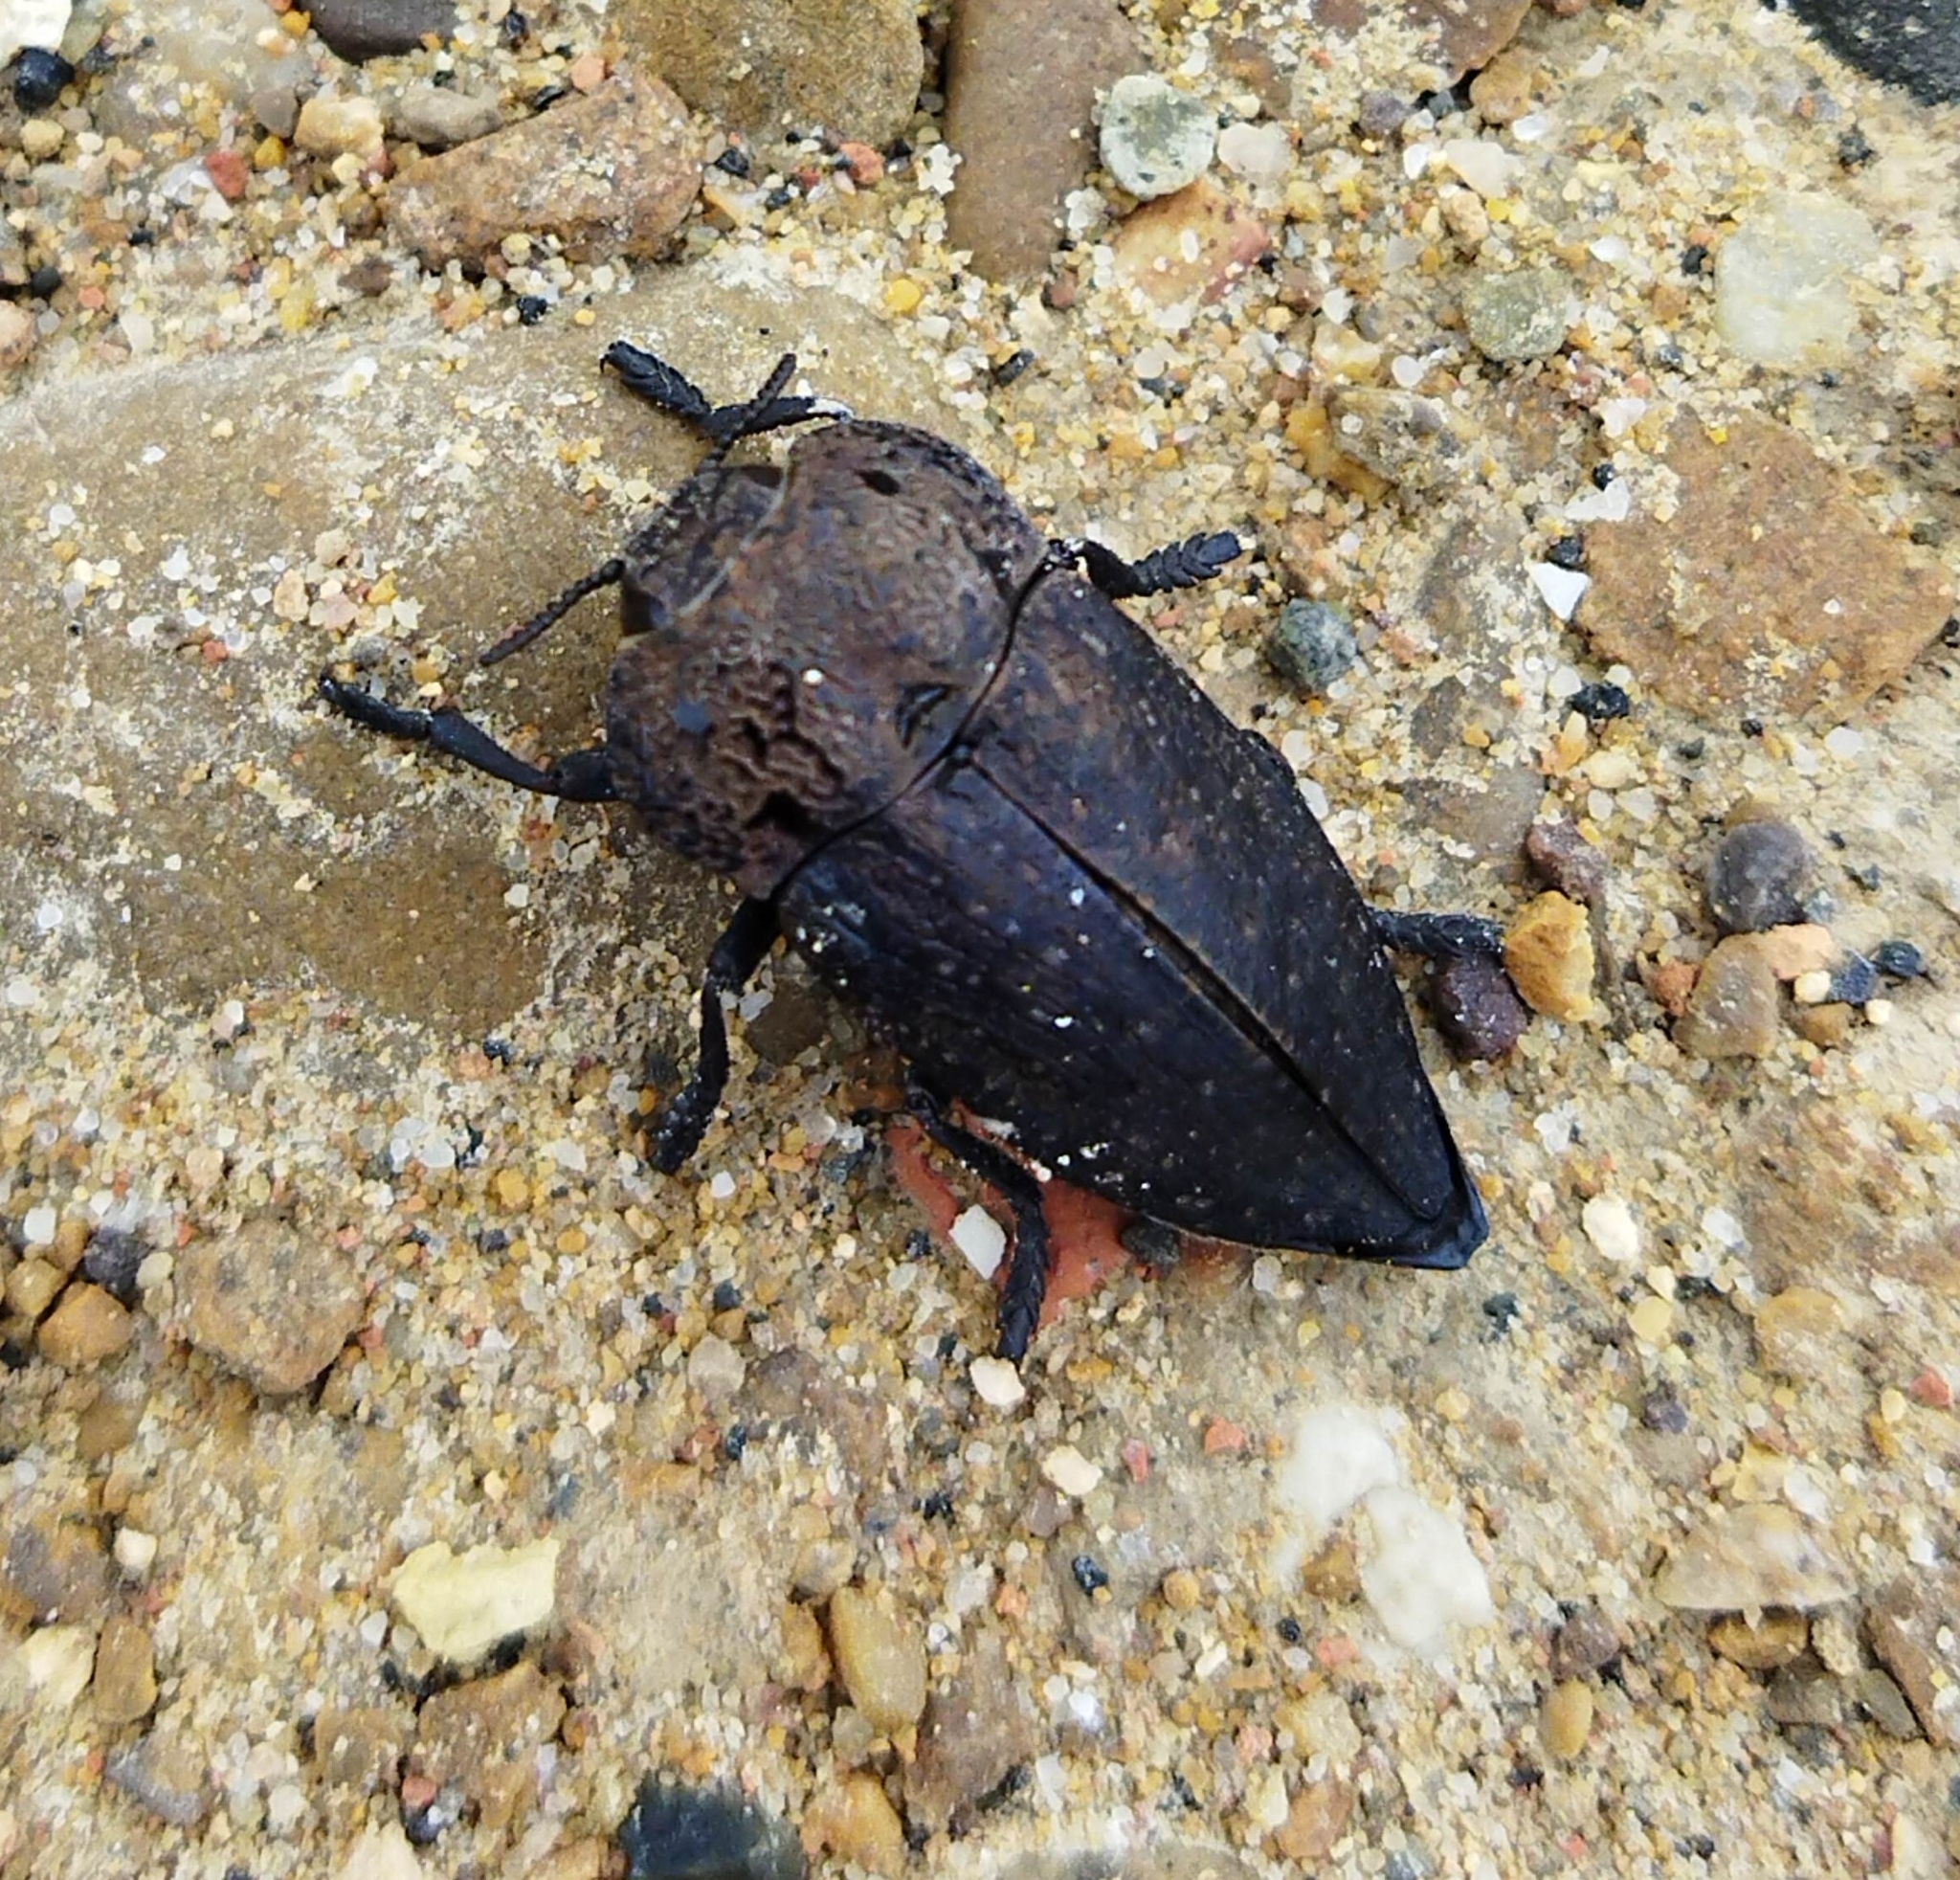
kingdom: Animalia
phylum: Arthropoda
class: Insecta
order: Coleoptera
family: Buprestidae
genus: Capnodis
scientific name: Capnodis tenebricosa
